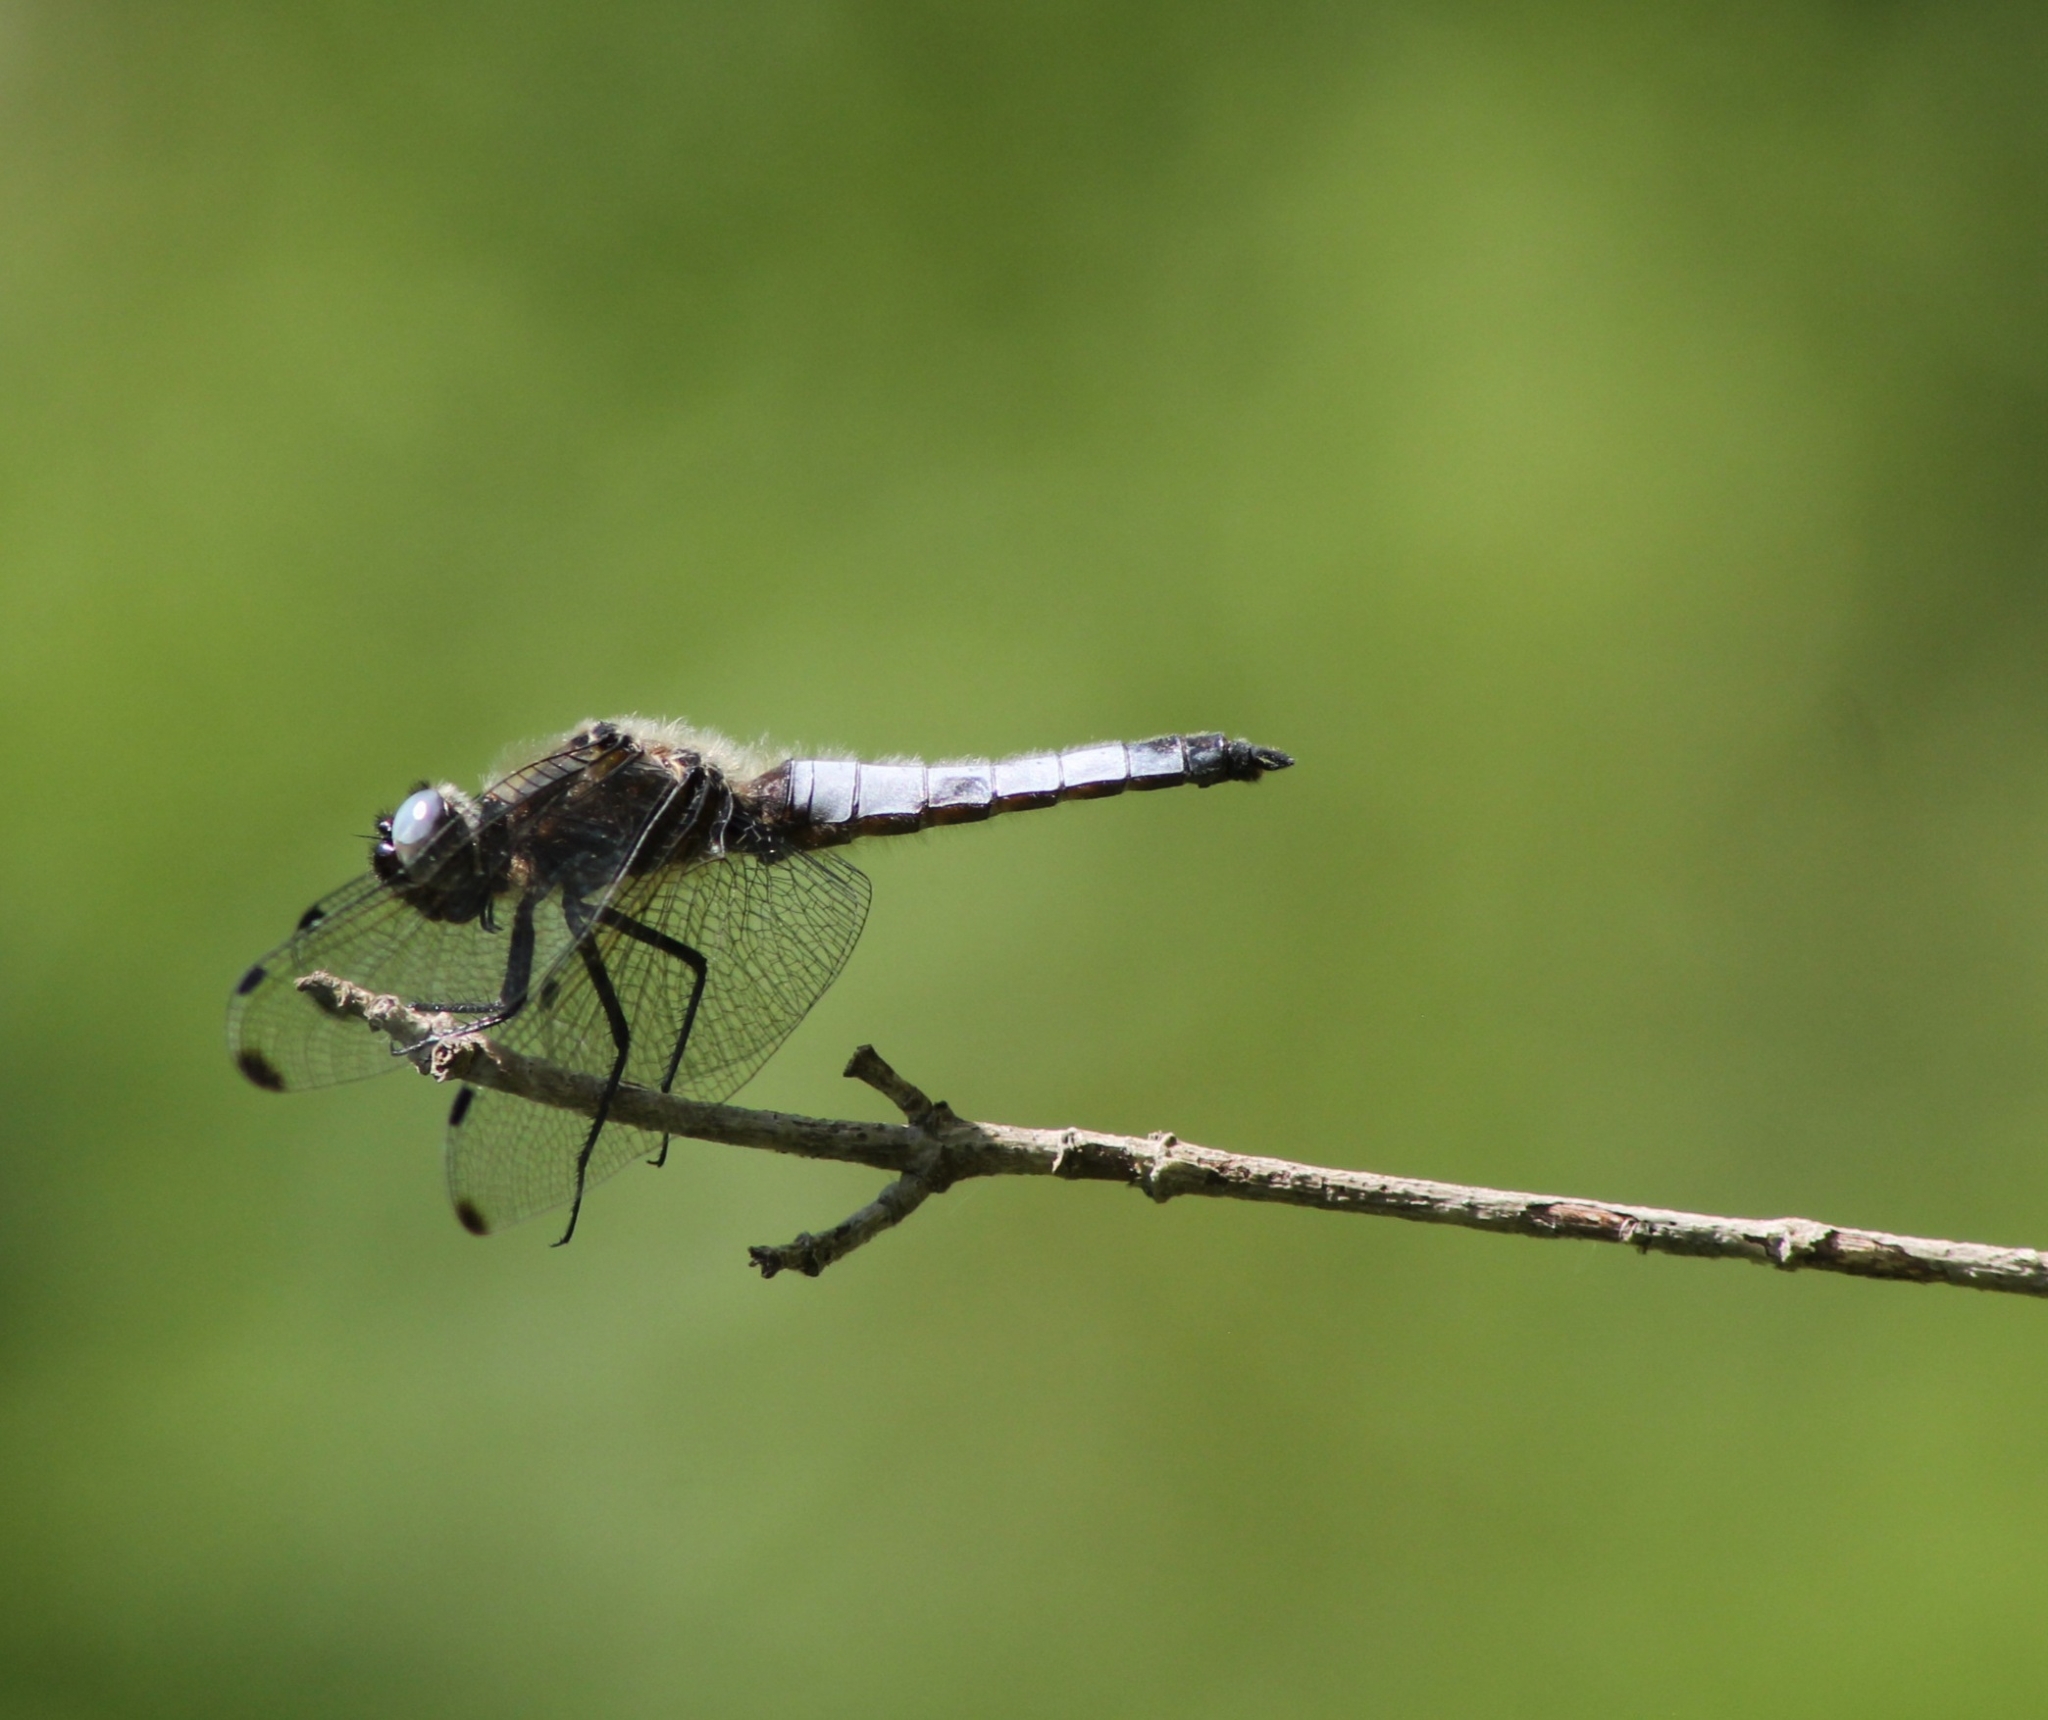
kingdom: Animalia
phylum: Arthropoda
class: Insecta
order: Odonata
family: Libellulidae
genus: Libellula
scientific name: Libellula fulva
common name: Blue chaser
